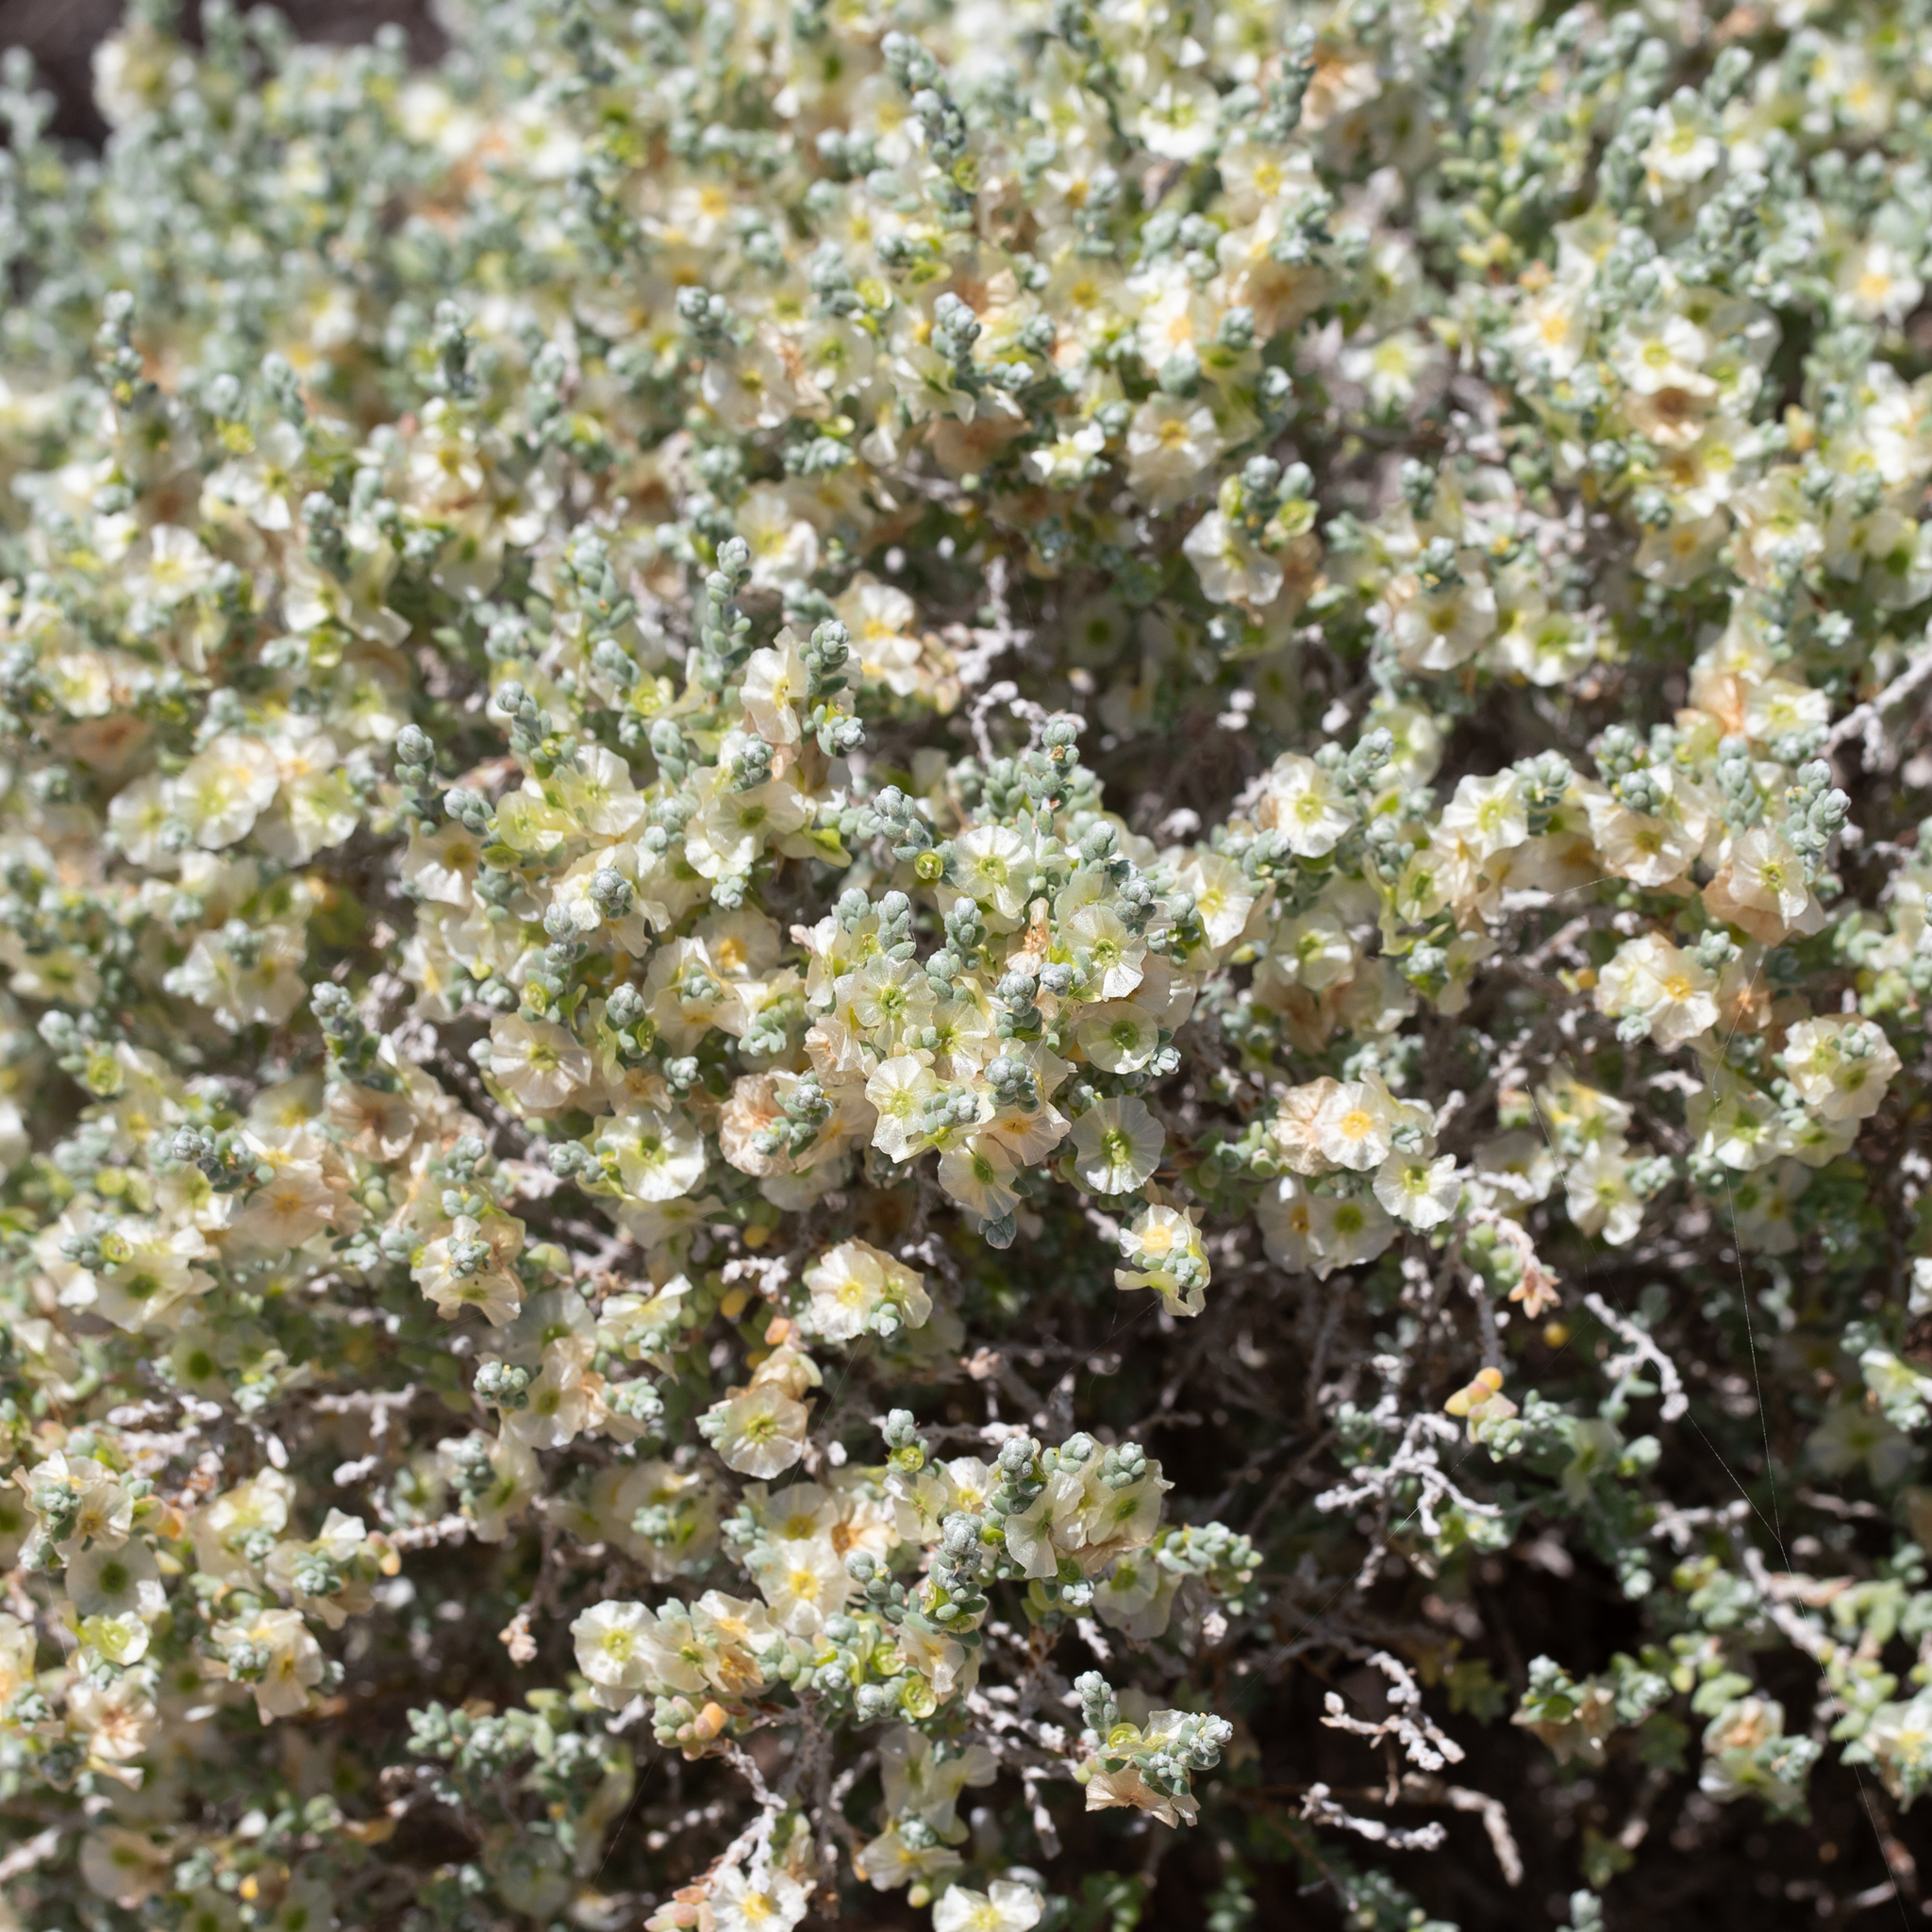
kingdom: Plantae
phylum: Tracheophyta
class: Magnoliopsida
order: Caryophyllales
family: Amaranthaceae
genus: Maireana
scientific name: Maireana appressa
